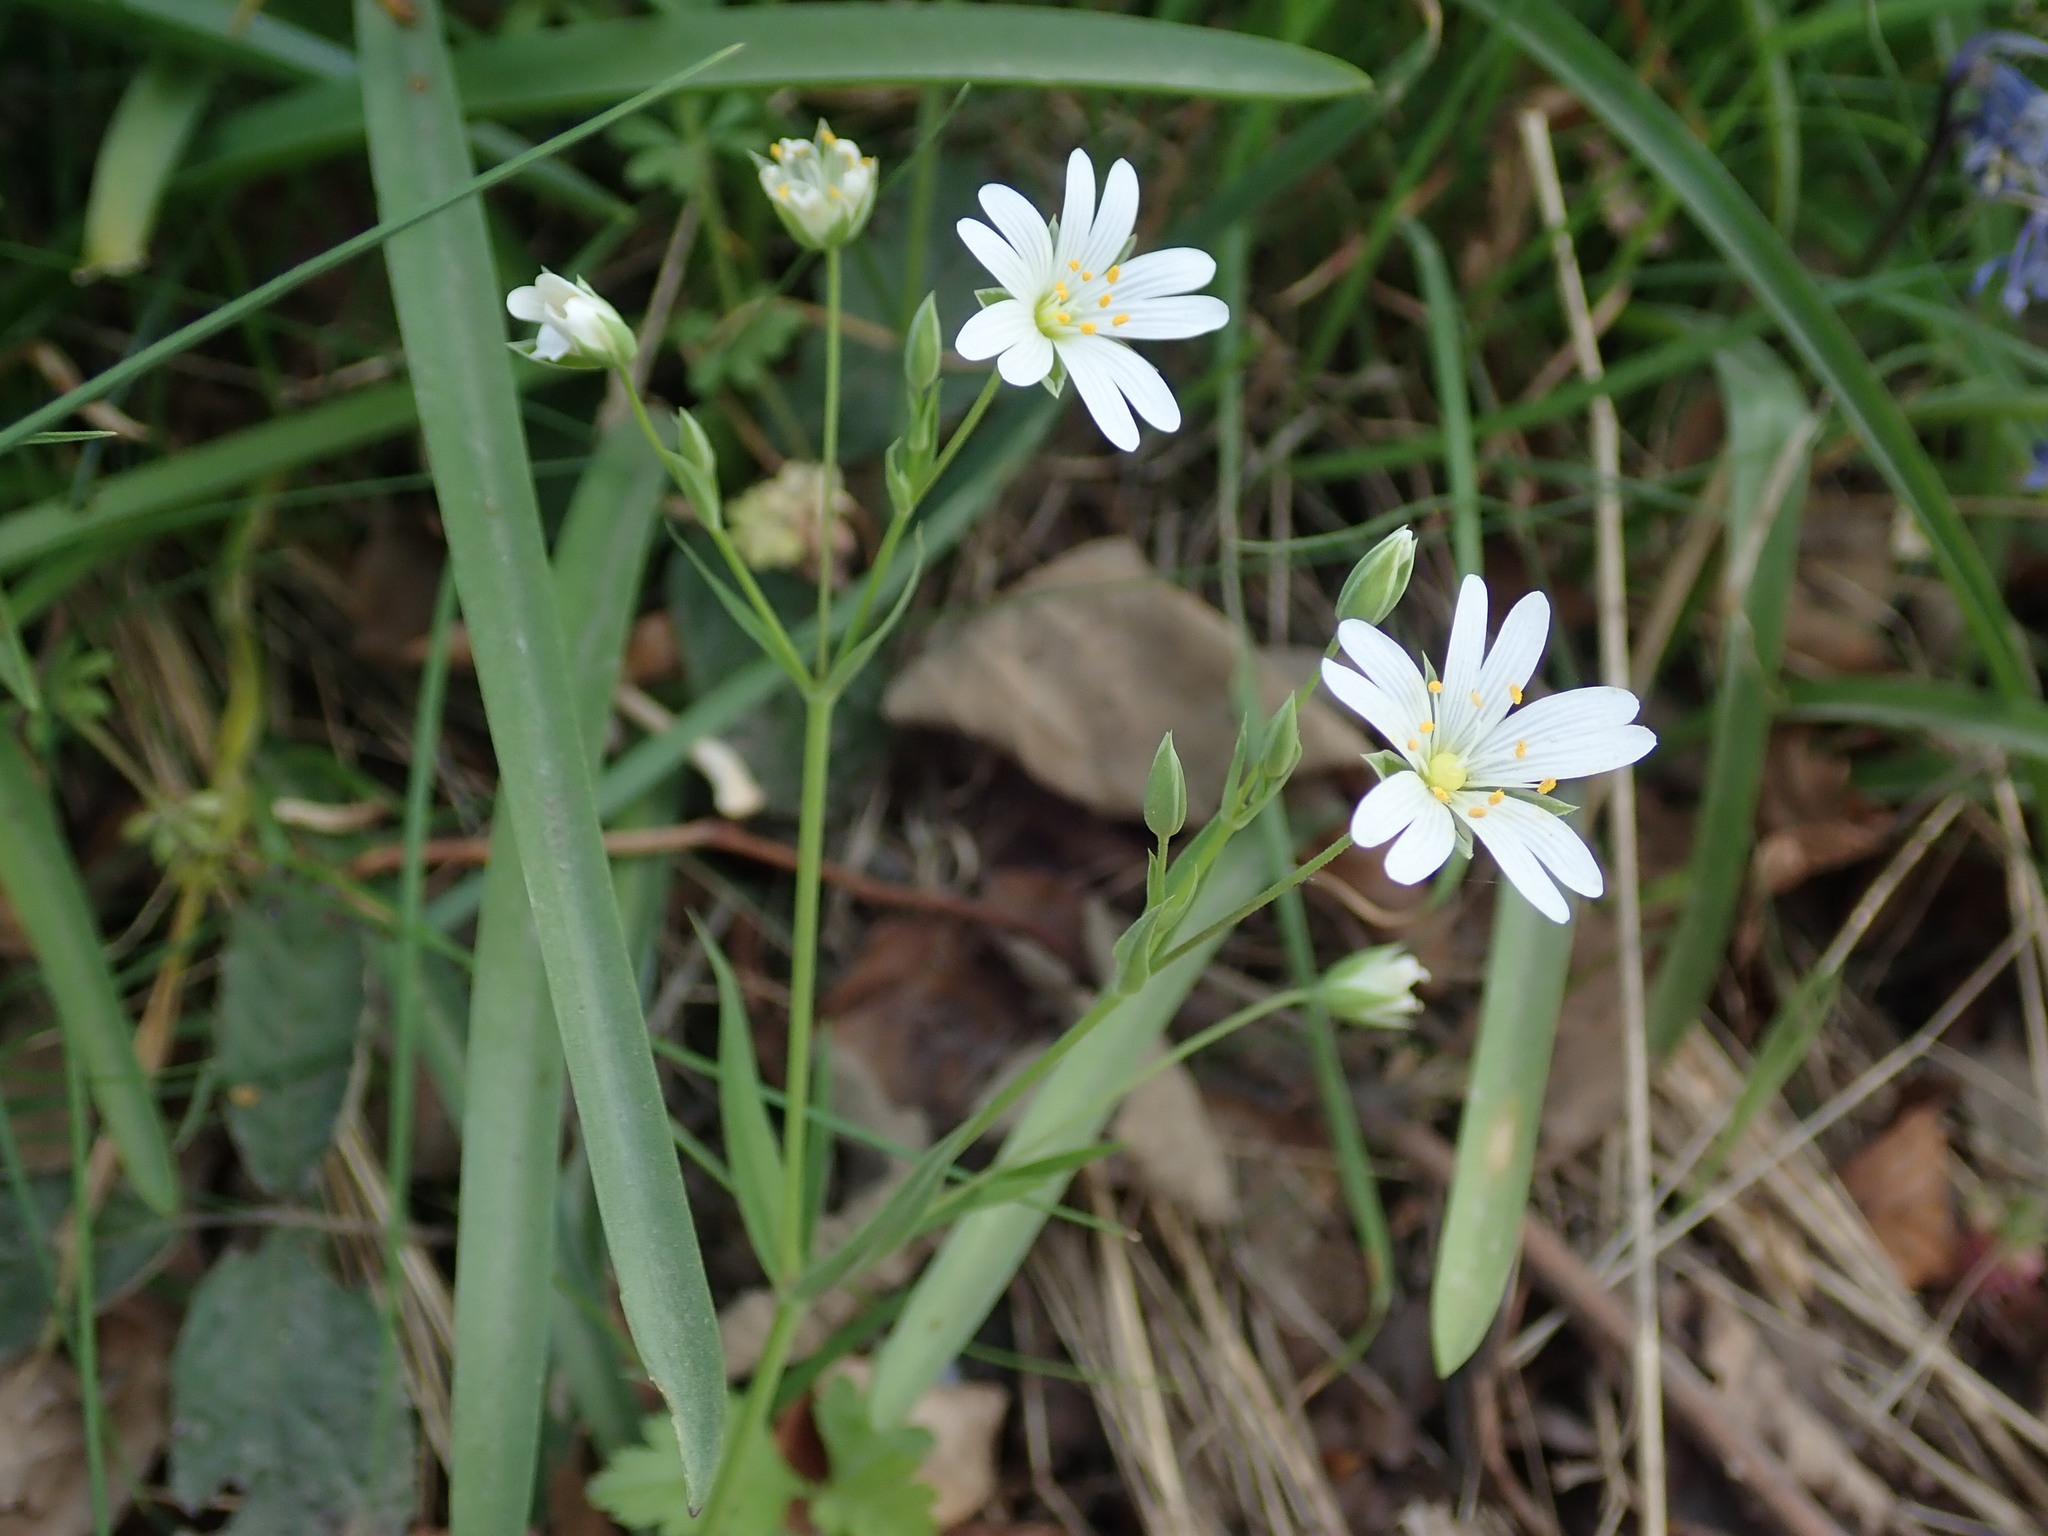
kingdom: Plantae
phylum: Tracheophyta
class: Magnoliopsida
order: Caryophyllales
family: Caryophyllaceae
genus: Rabelera
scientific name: Rabelera holostea
